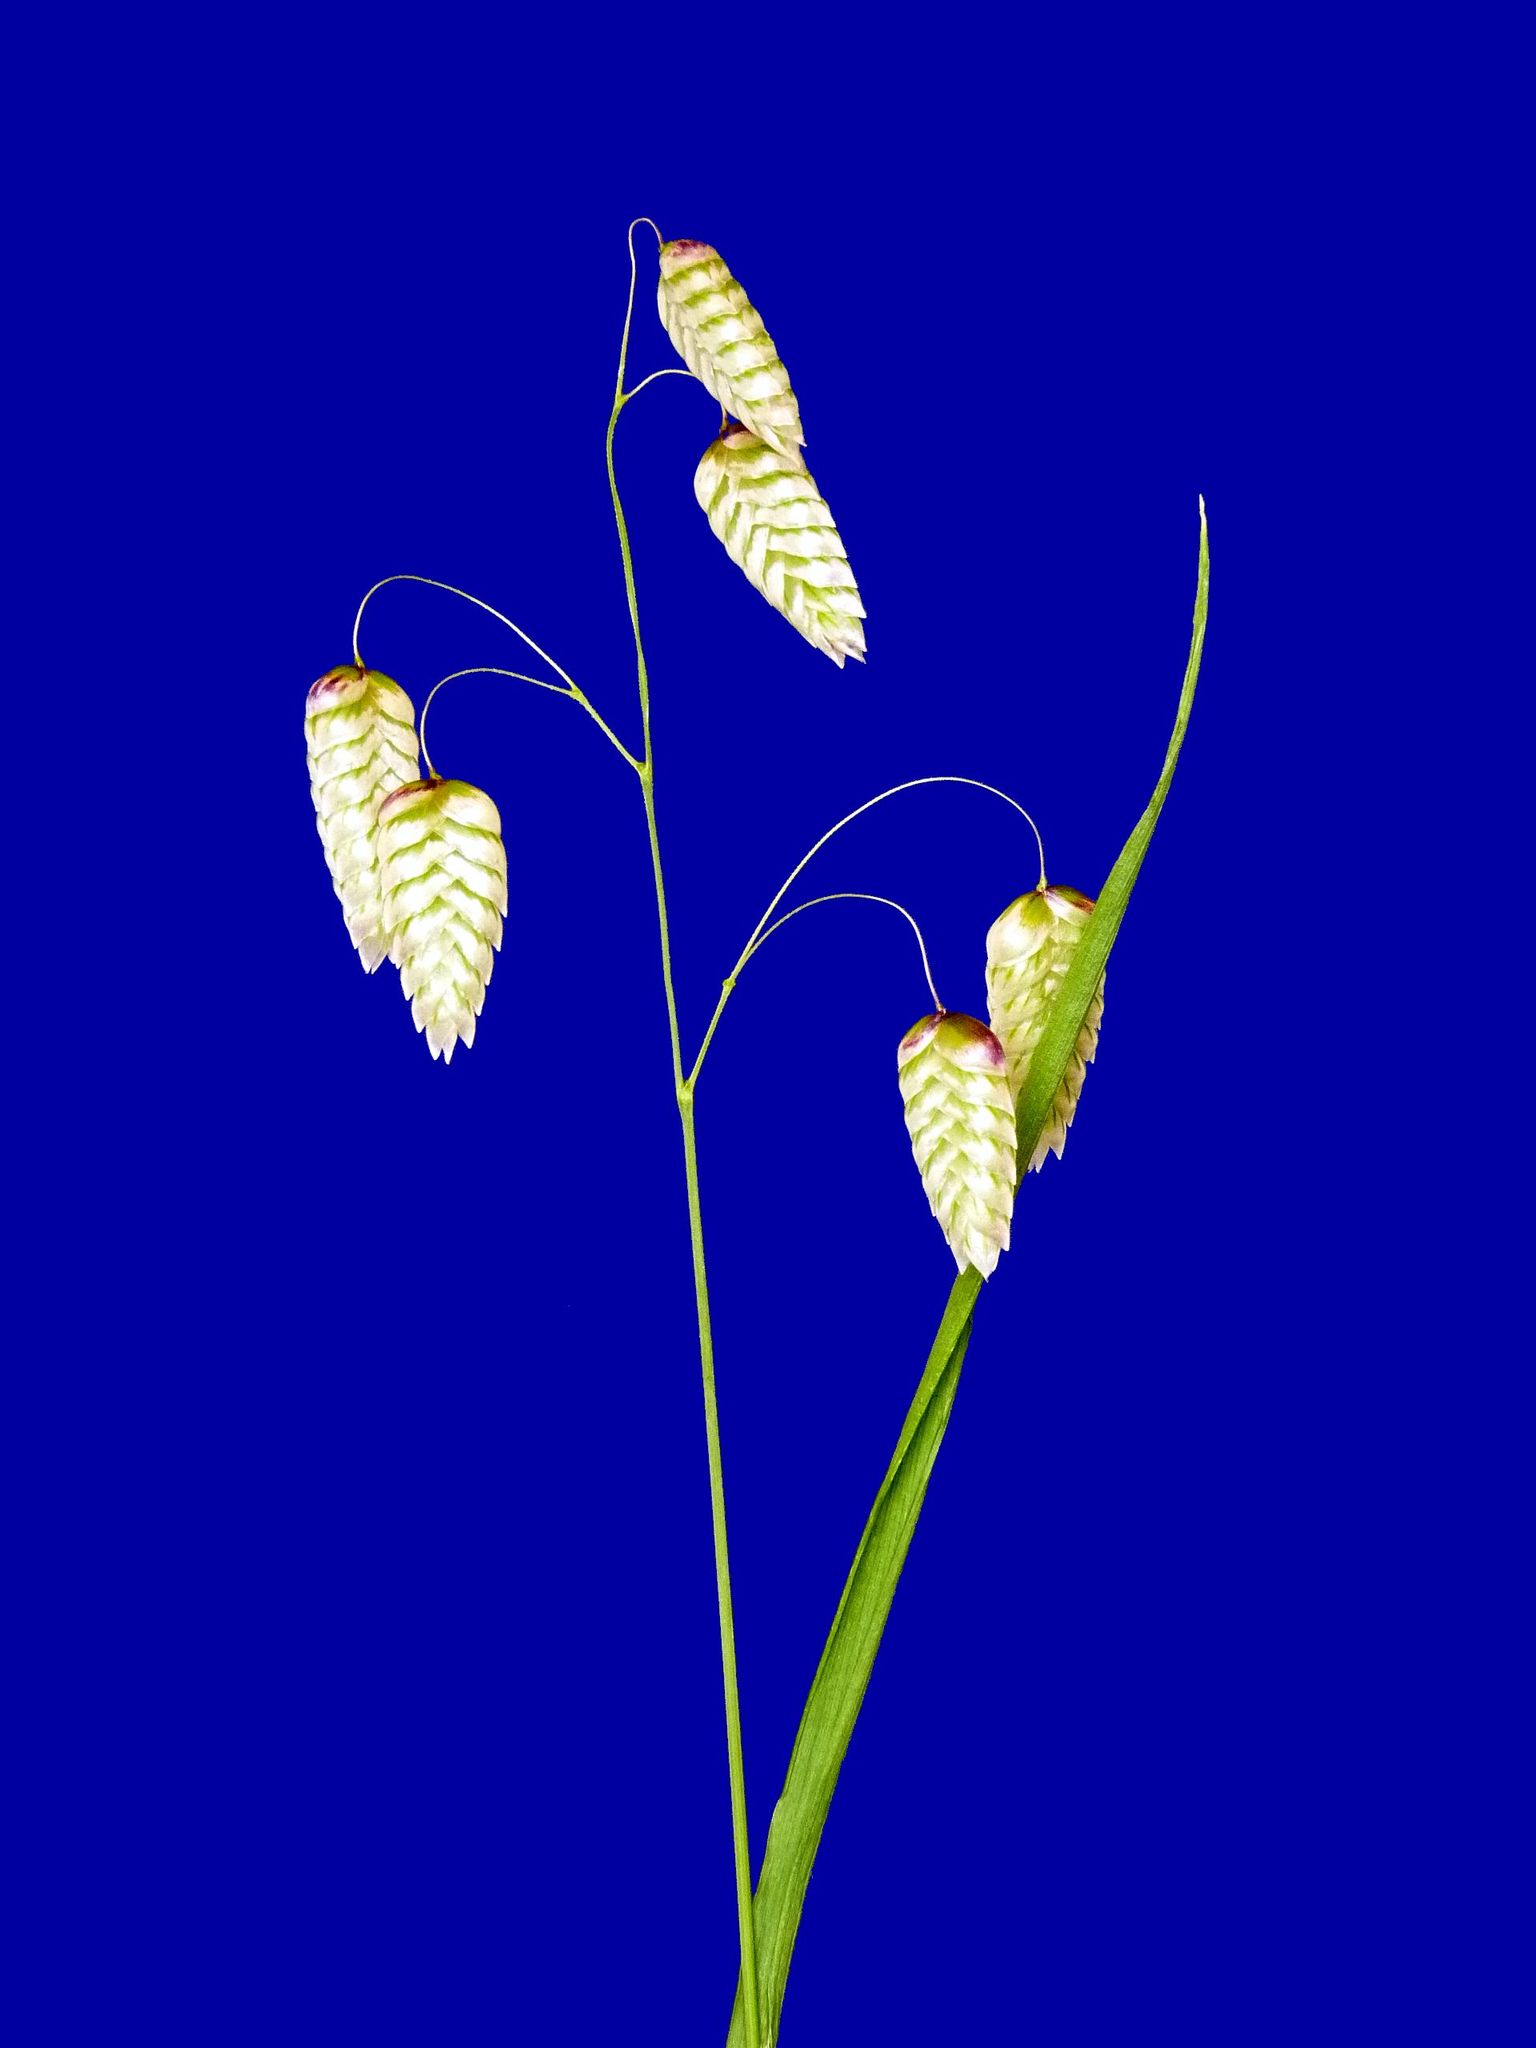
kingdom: Plantae
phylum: Tracheophyta
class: Liliopsida
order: Poales
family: Poaceae
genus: Briza
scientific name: Briza maxima
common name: Big quakinggrass
